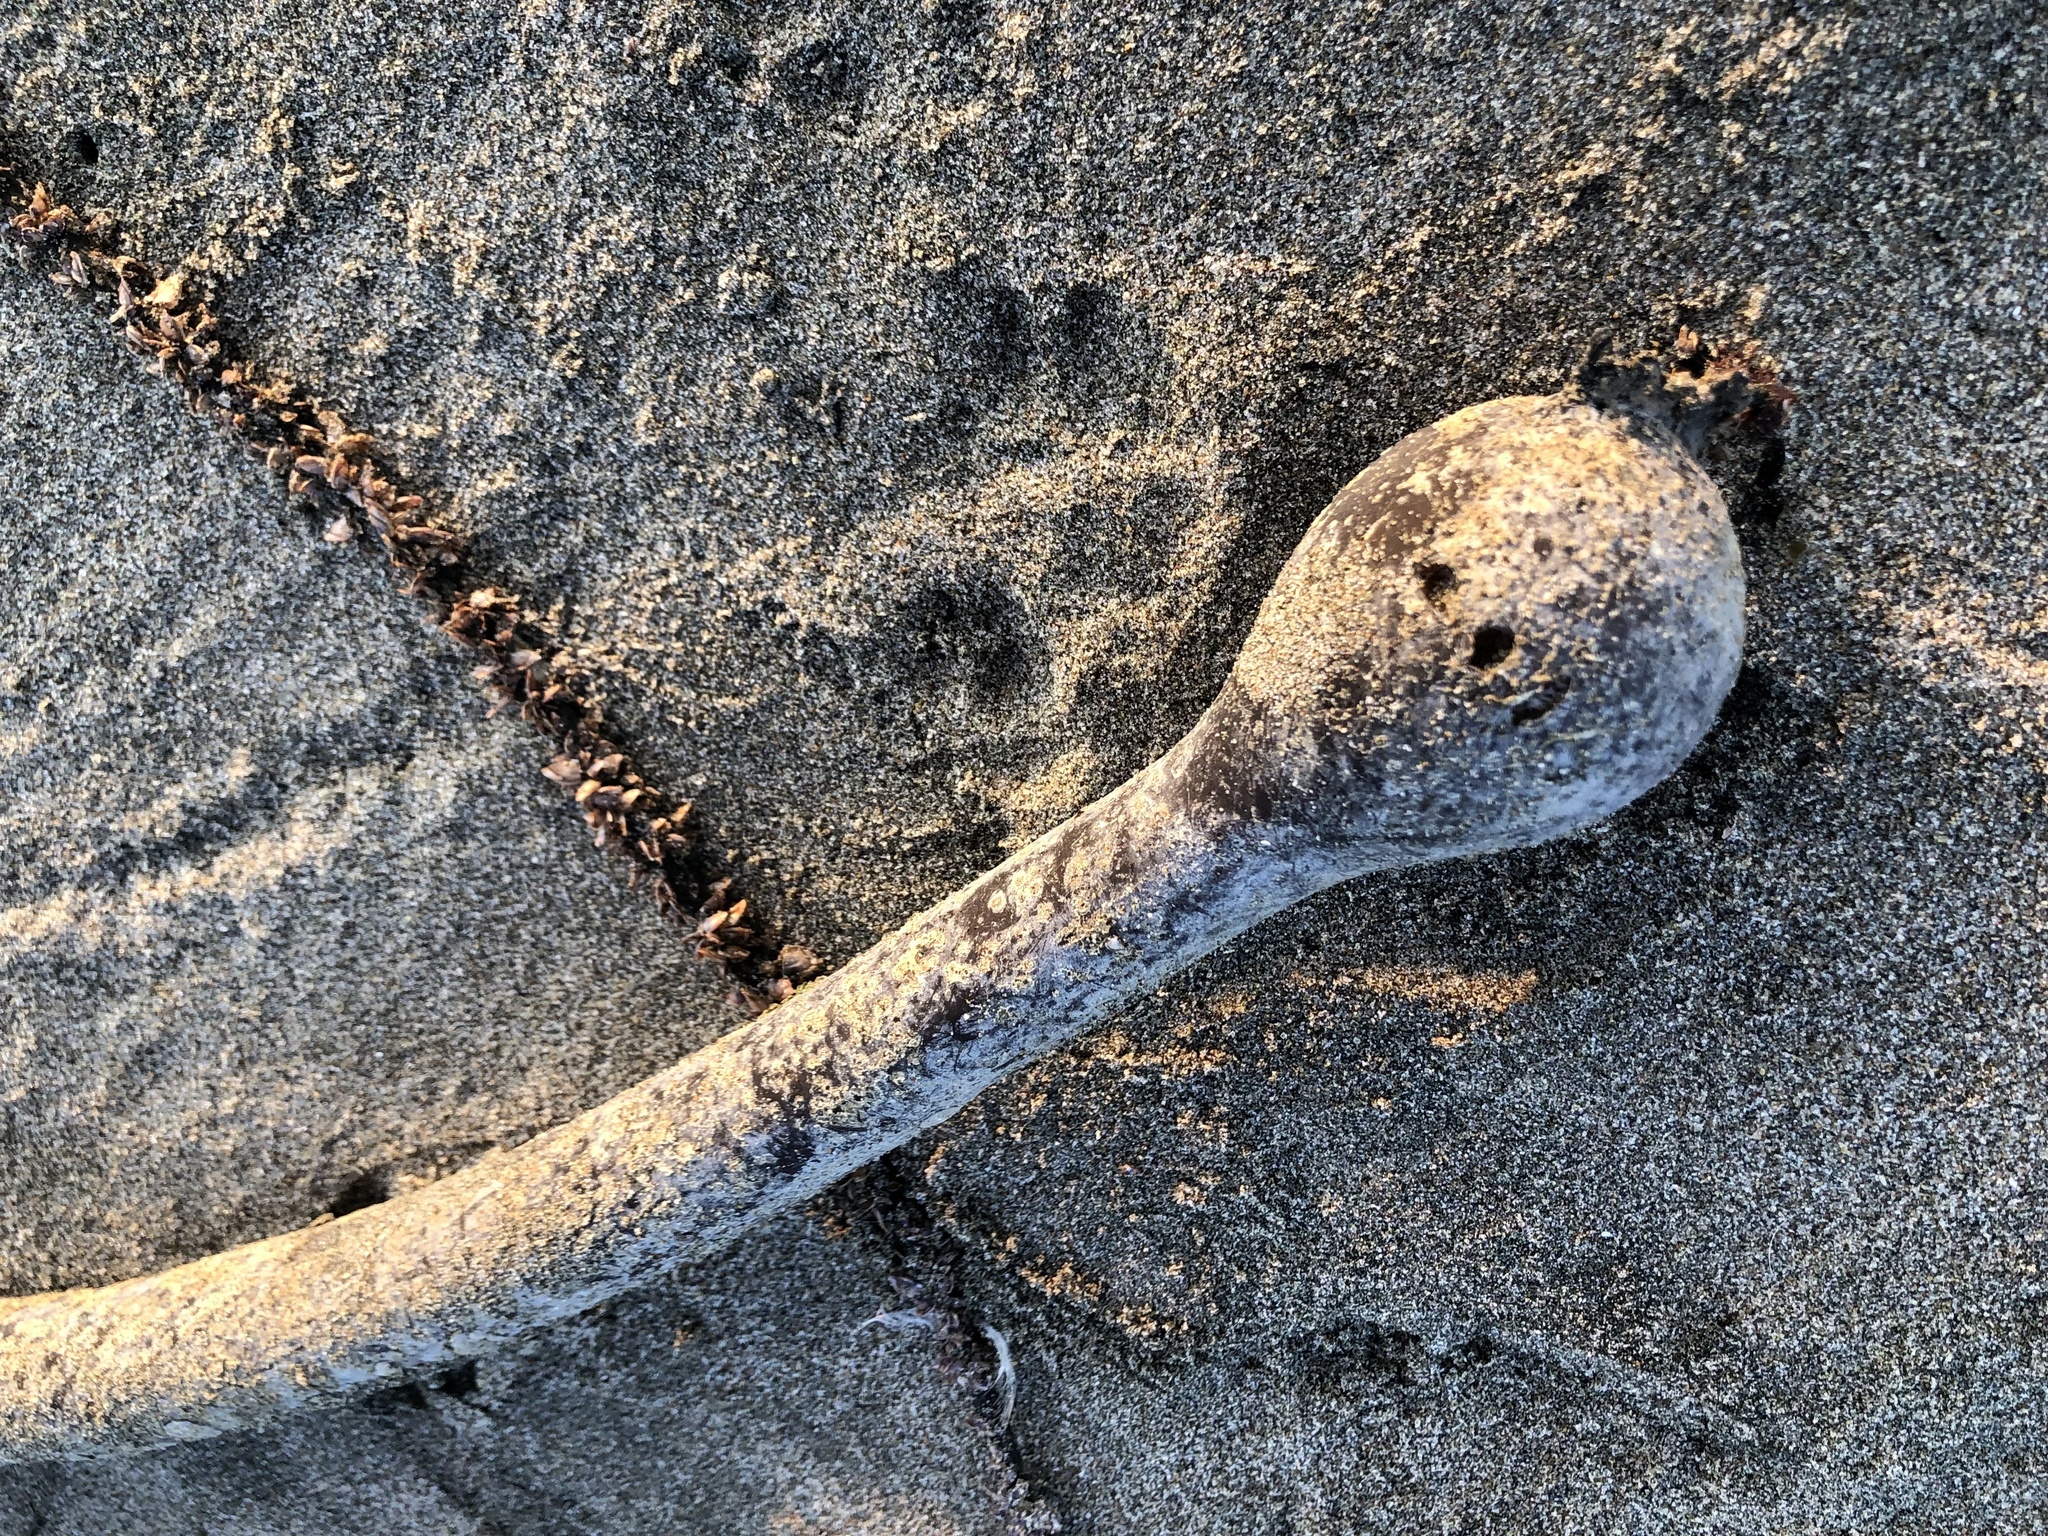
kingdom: Chromista
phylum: Ochrophyta
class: Phaeophyceae
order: Laminariales
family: Laminariaceae
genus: Nereocystis
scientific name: Nereocystis luetkeana
